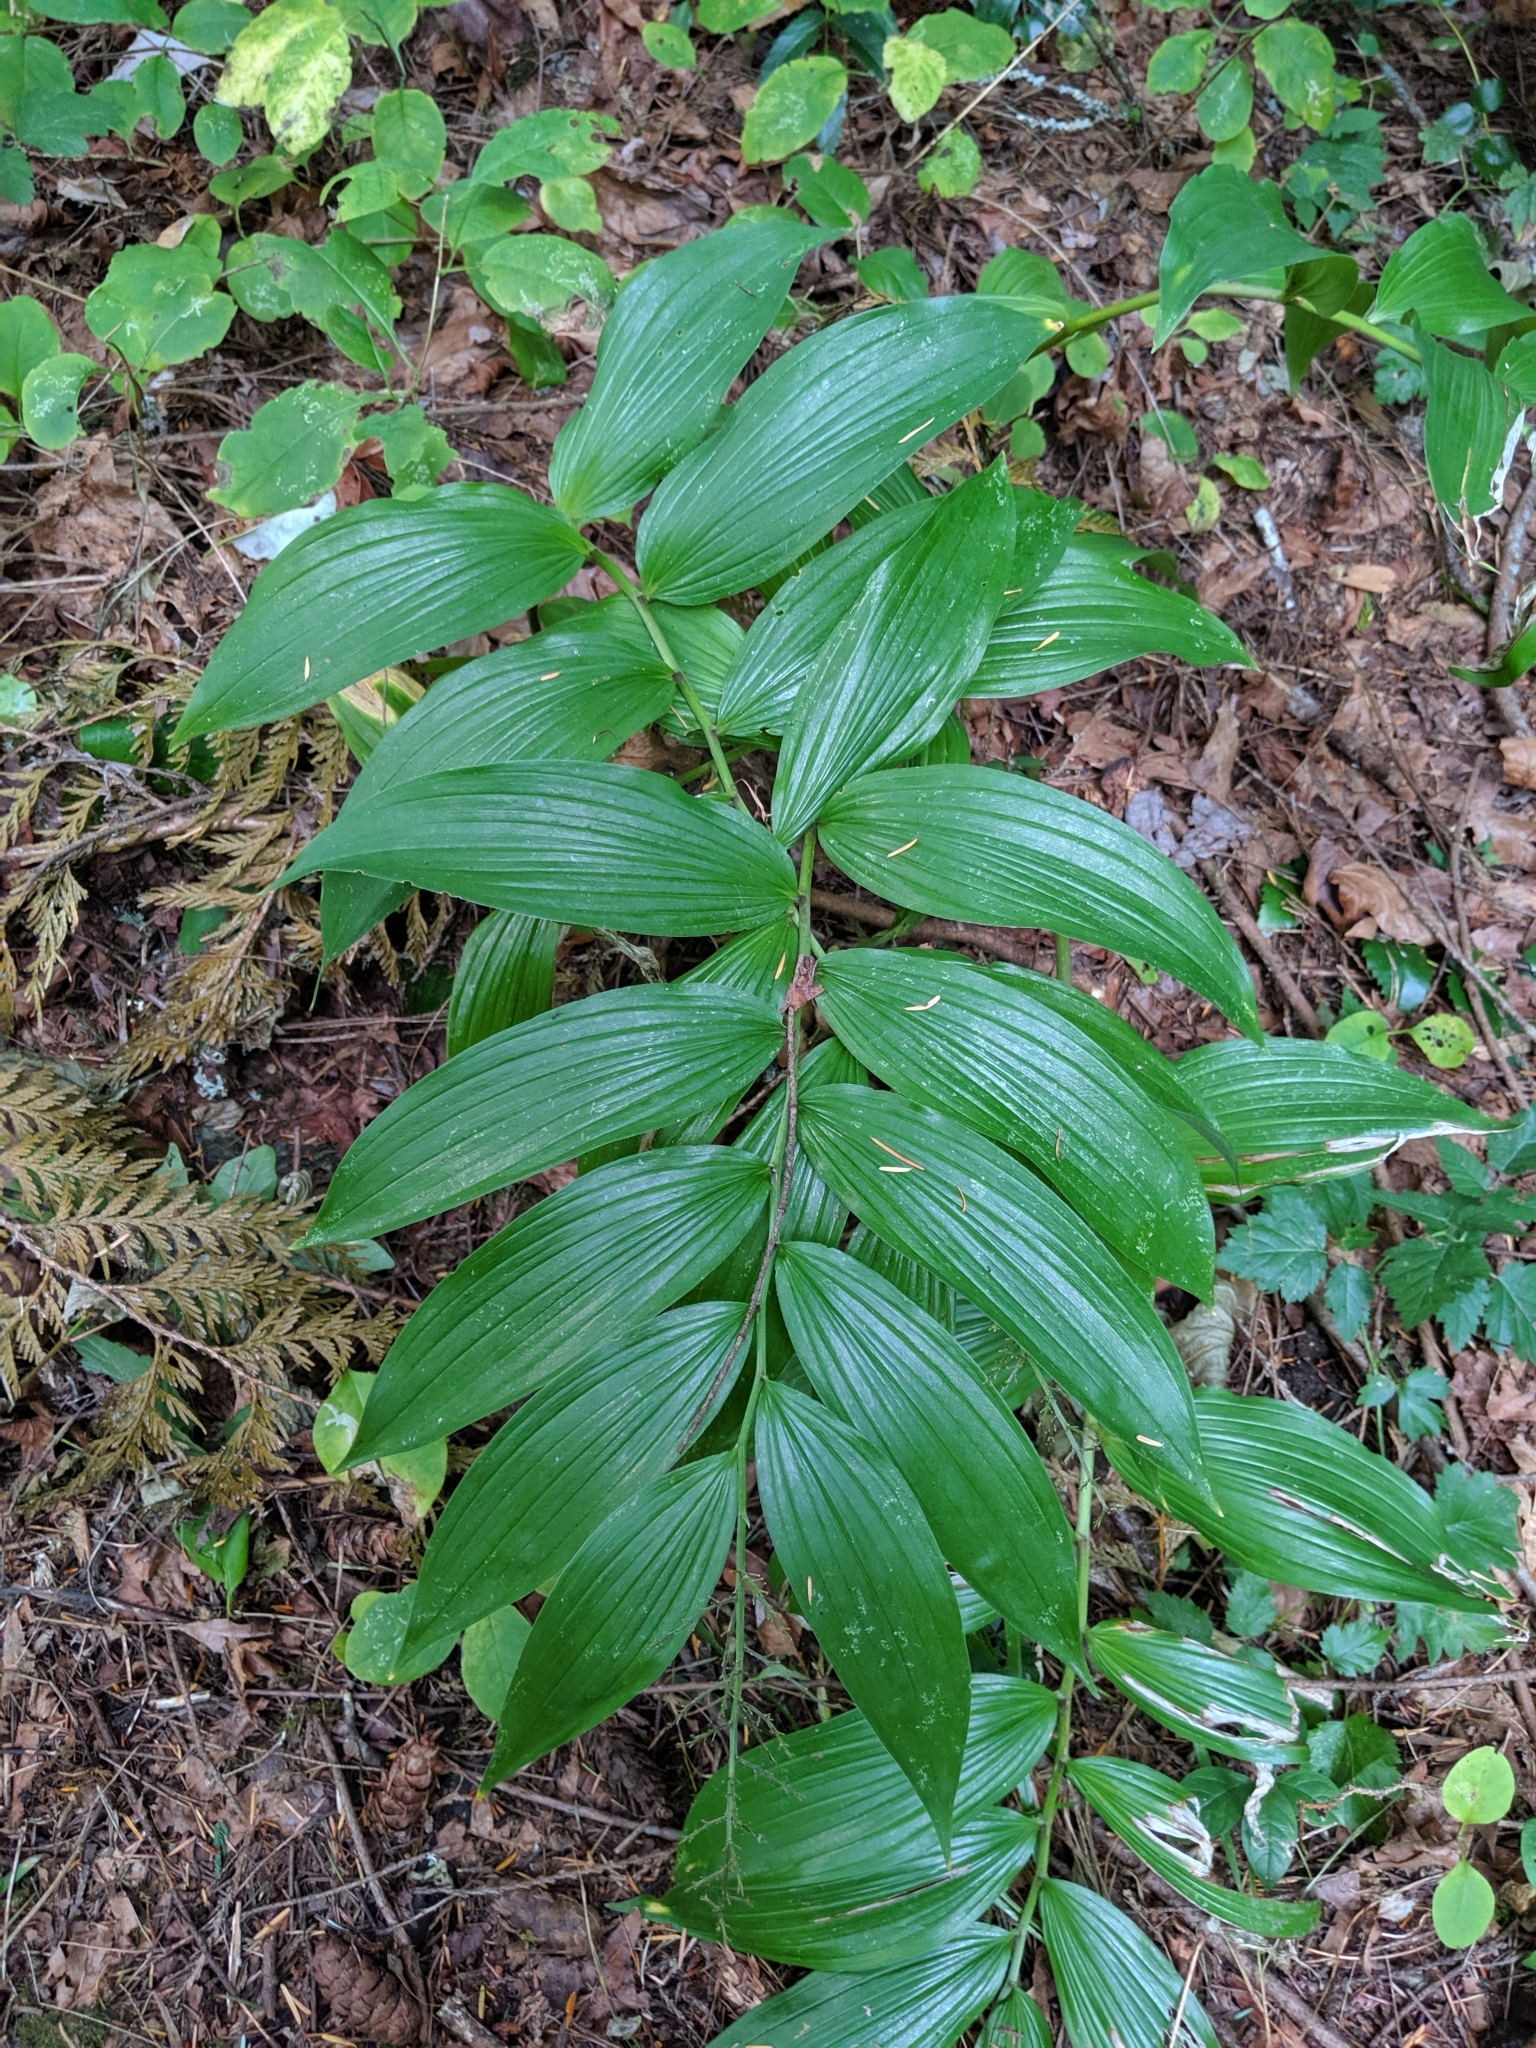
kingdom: Plantae
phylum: Tracheophyta
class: Liliopsida
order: Asparagales
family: Asparagaceae
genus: Maianthemum
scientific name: Maianthemum racemosum
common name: False spikenard
